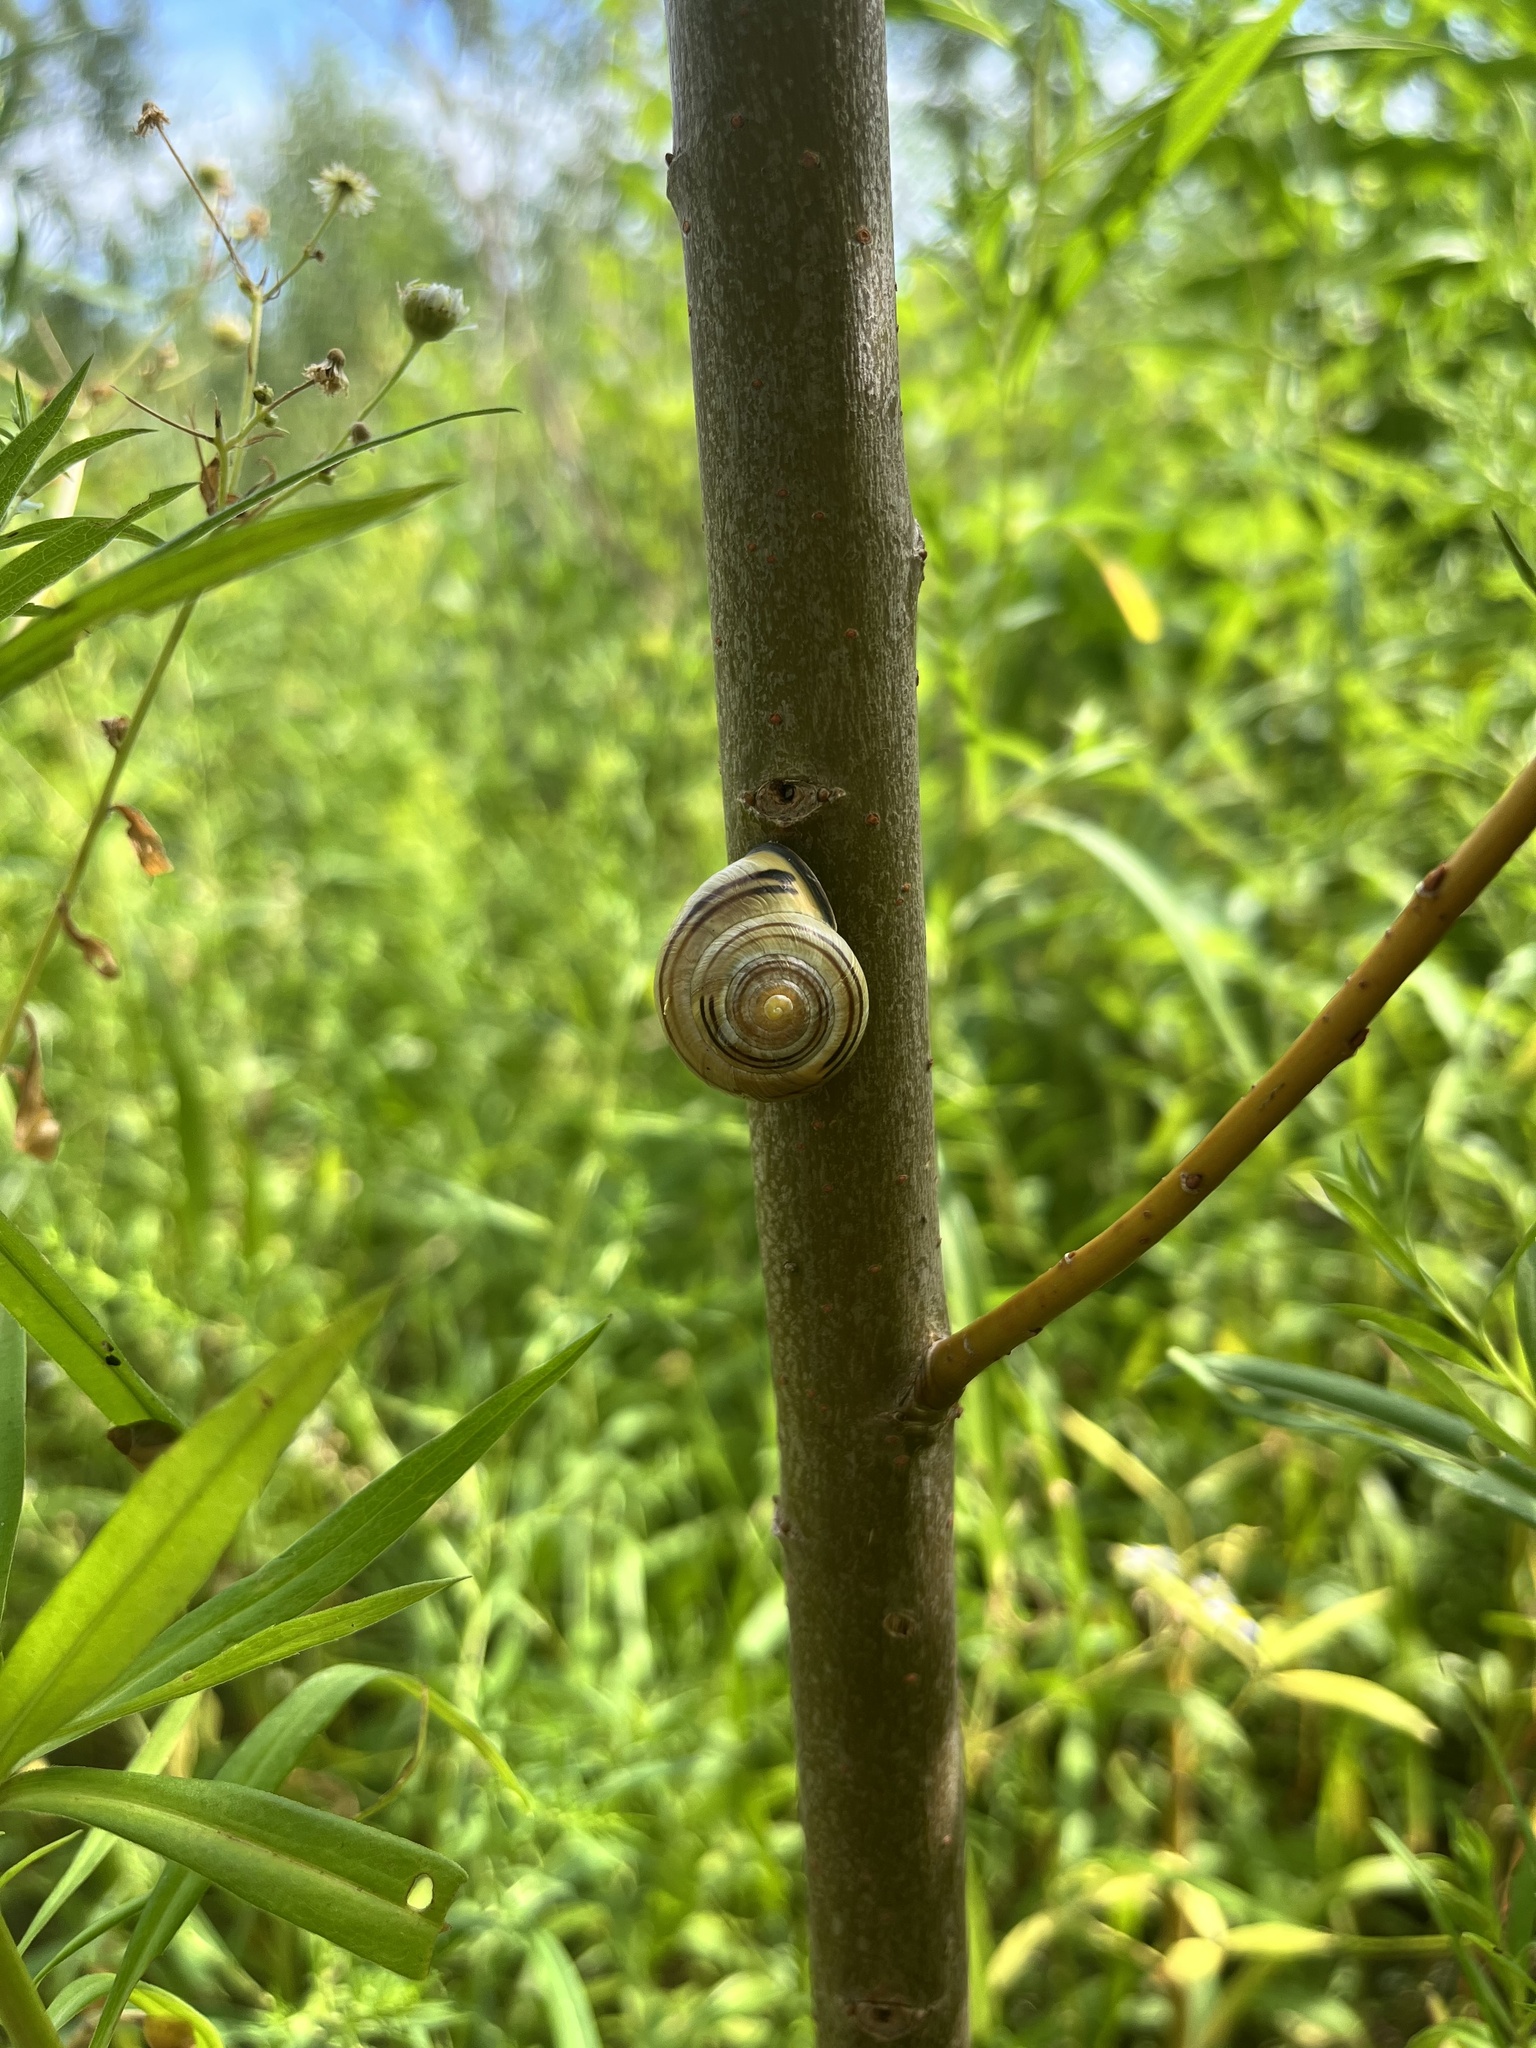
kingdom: Animalia
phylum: Mollusca
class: Gastropoda
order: Stylommatophora
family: Helicidae
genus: Cepaea
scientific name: Cepaea nemoralis
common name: Grovesnail
